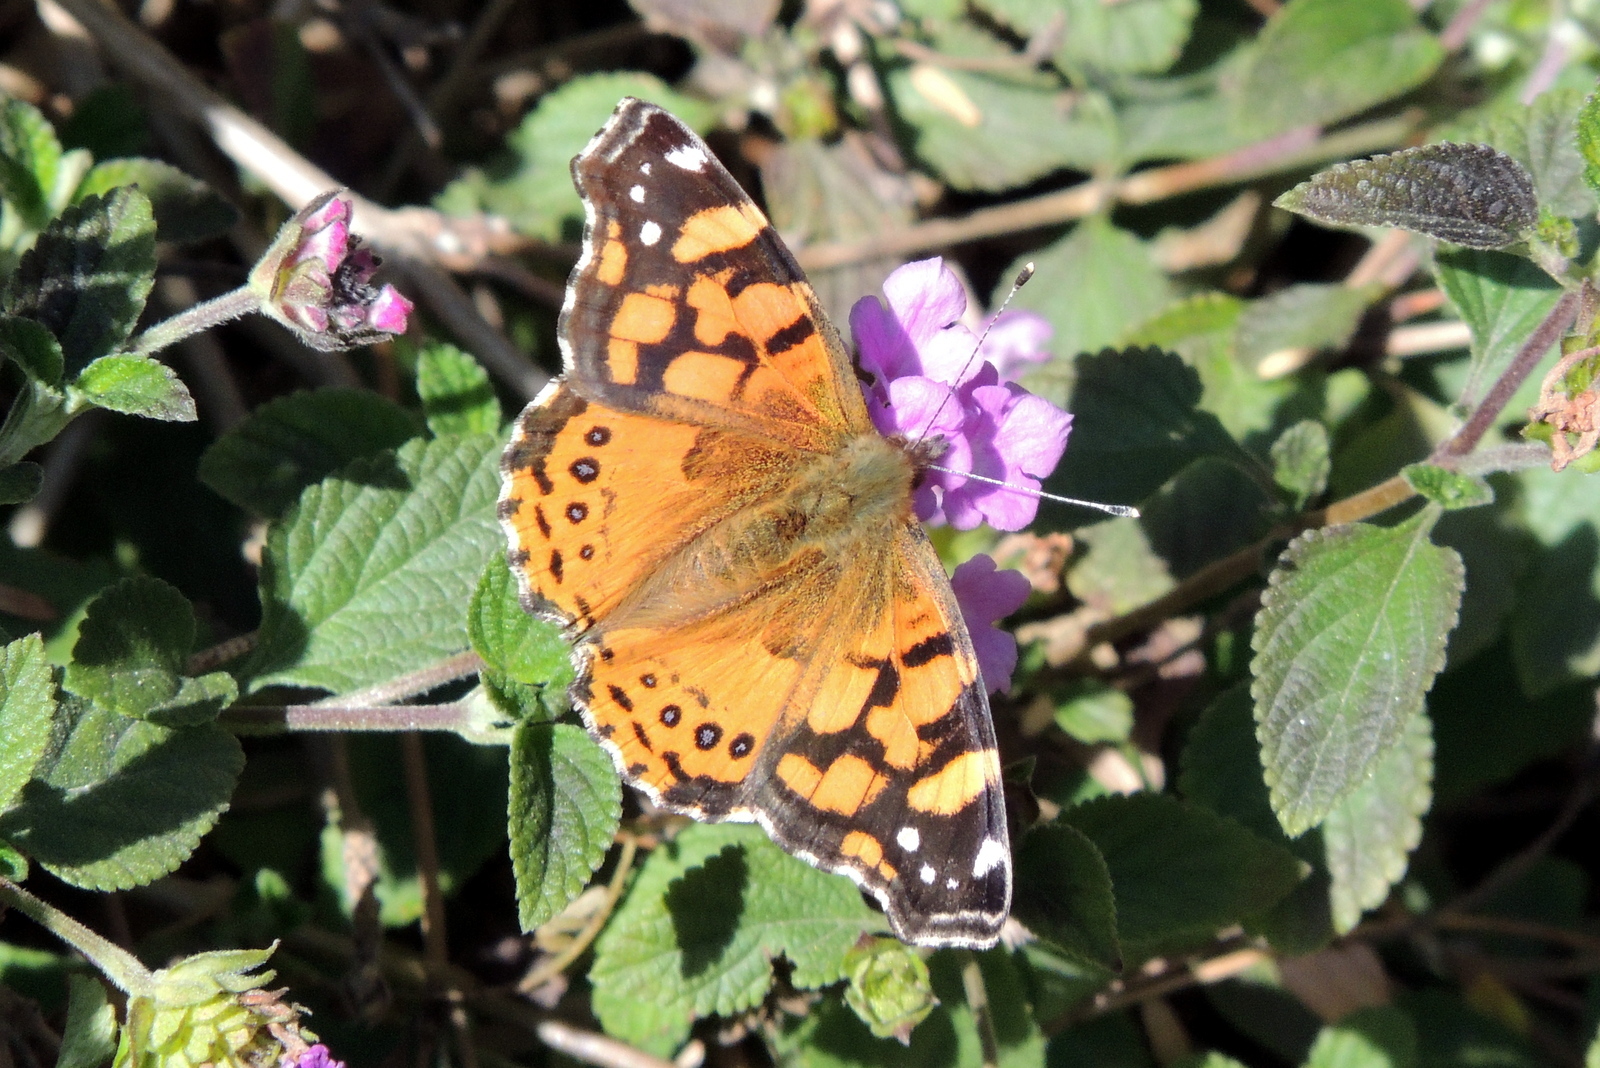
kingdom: Animalia
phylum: Arthropoda
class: Insecta
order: Lepidoptera
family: Nymphalidae
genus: Vanessa
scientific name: Vanessa annabella
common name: West coast lady
